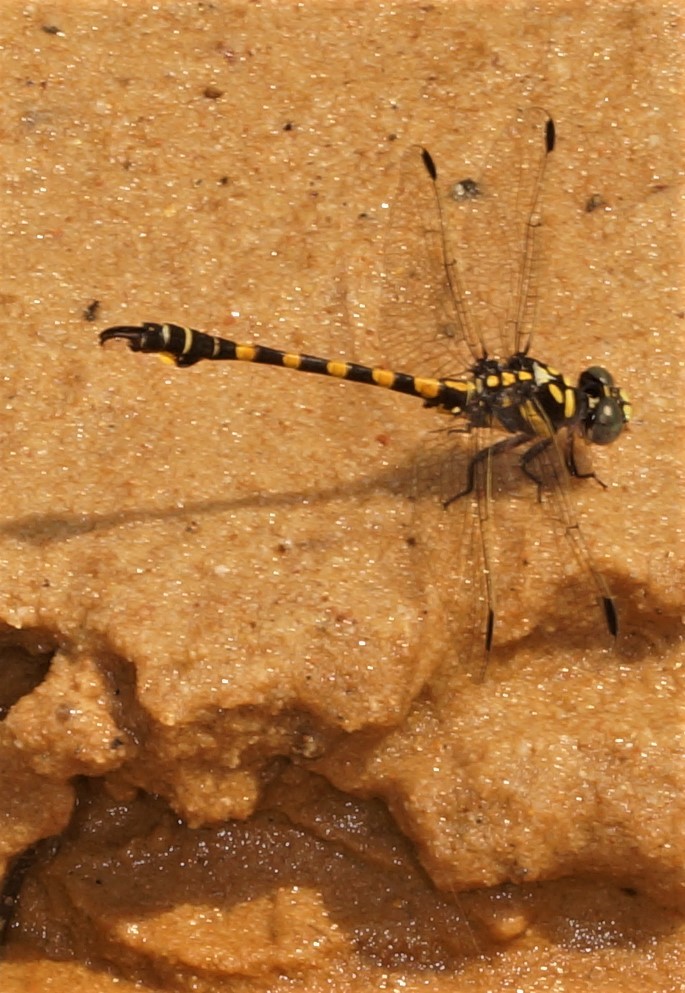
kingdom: Animalia
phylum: Arthropoda
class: Insecta
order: Odonata
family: Gomphidae
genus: Paragomphus
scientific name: Paragomphus capricornis
